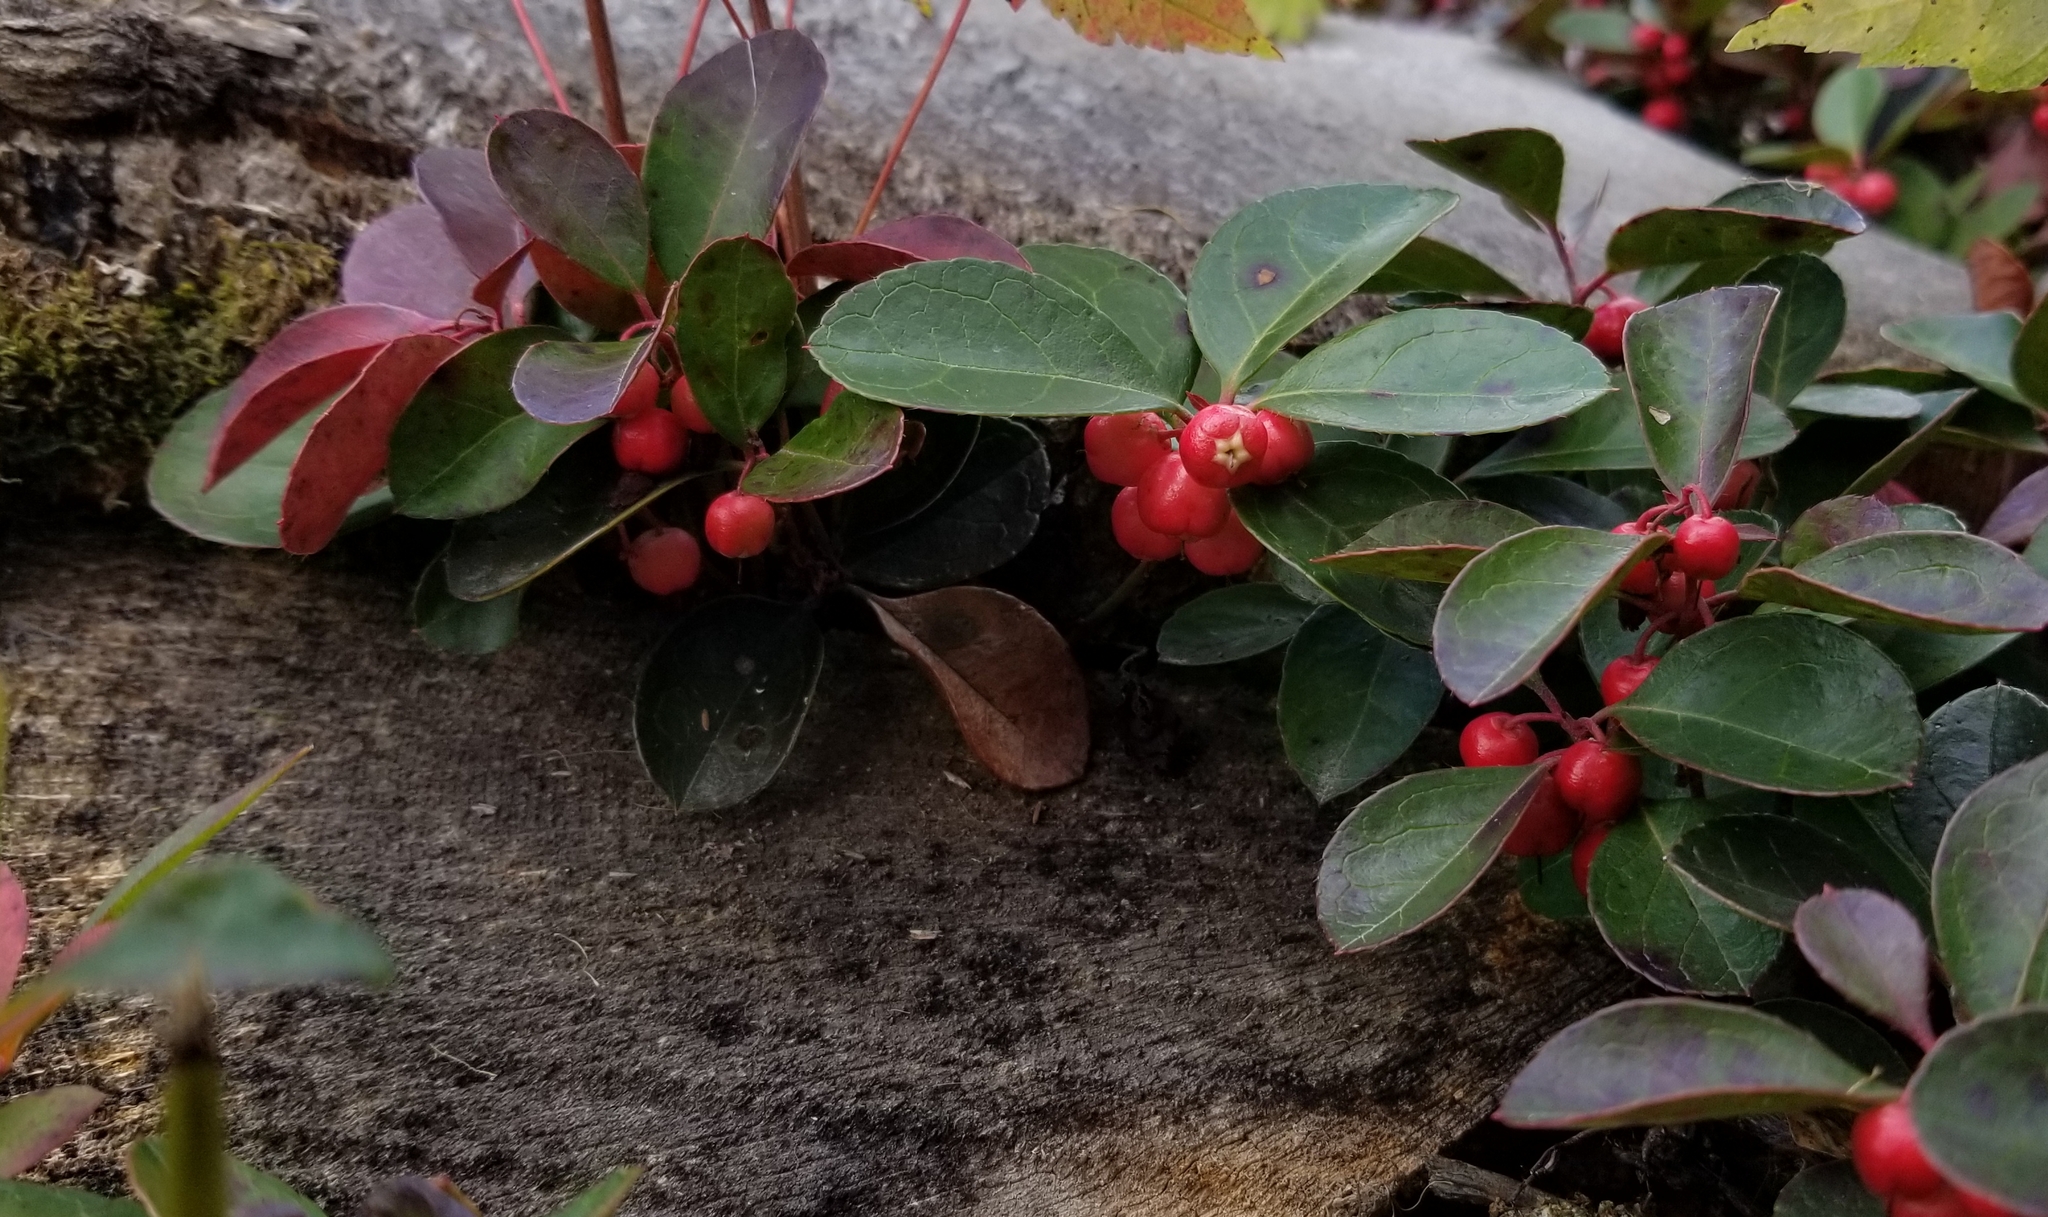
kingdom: Plantae
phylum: Tracheophyta
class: Magnoliopsida
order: Ericales
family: Ericaceae
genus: Gaultheria
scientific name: Gaultheria procumbens
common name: Checkerberry
